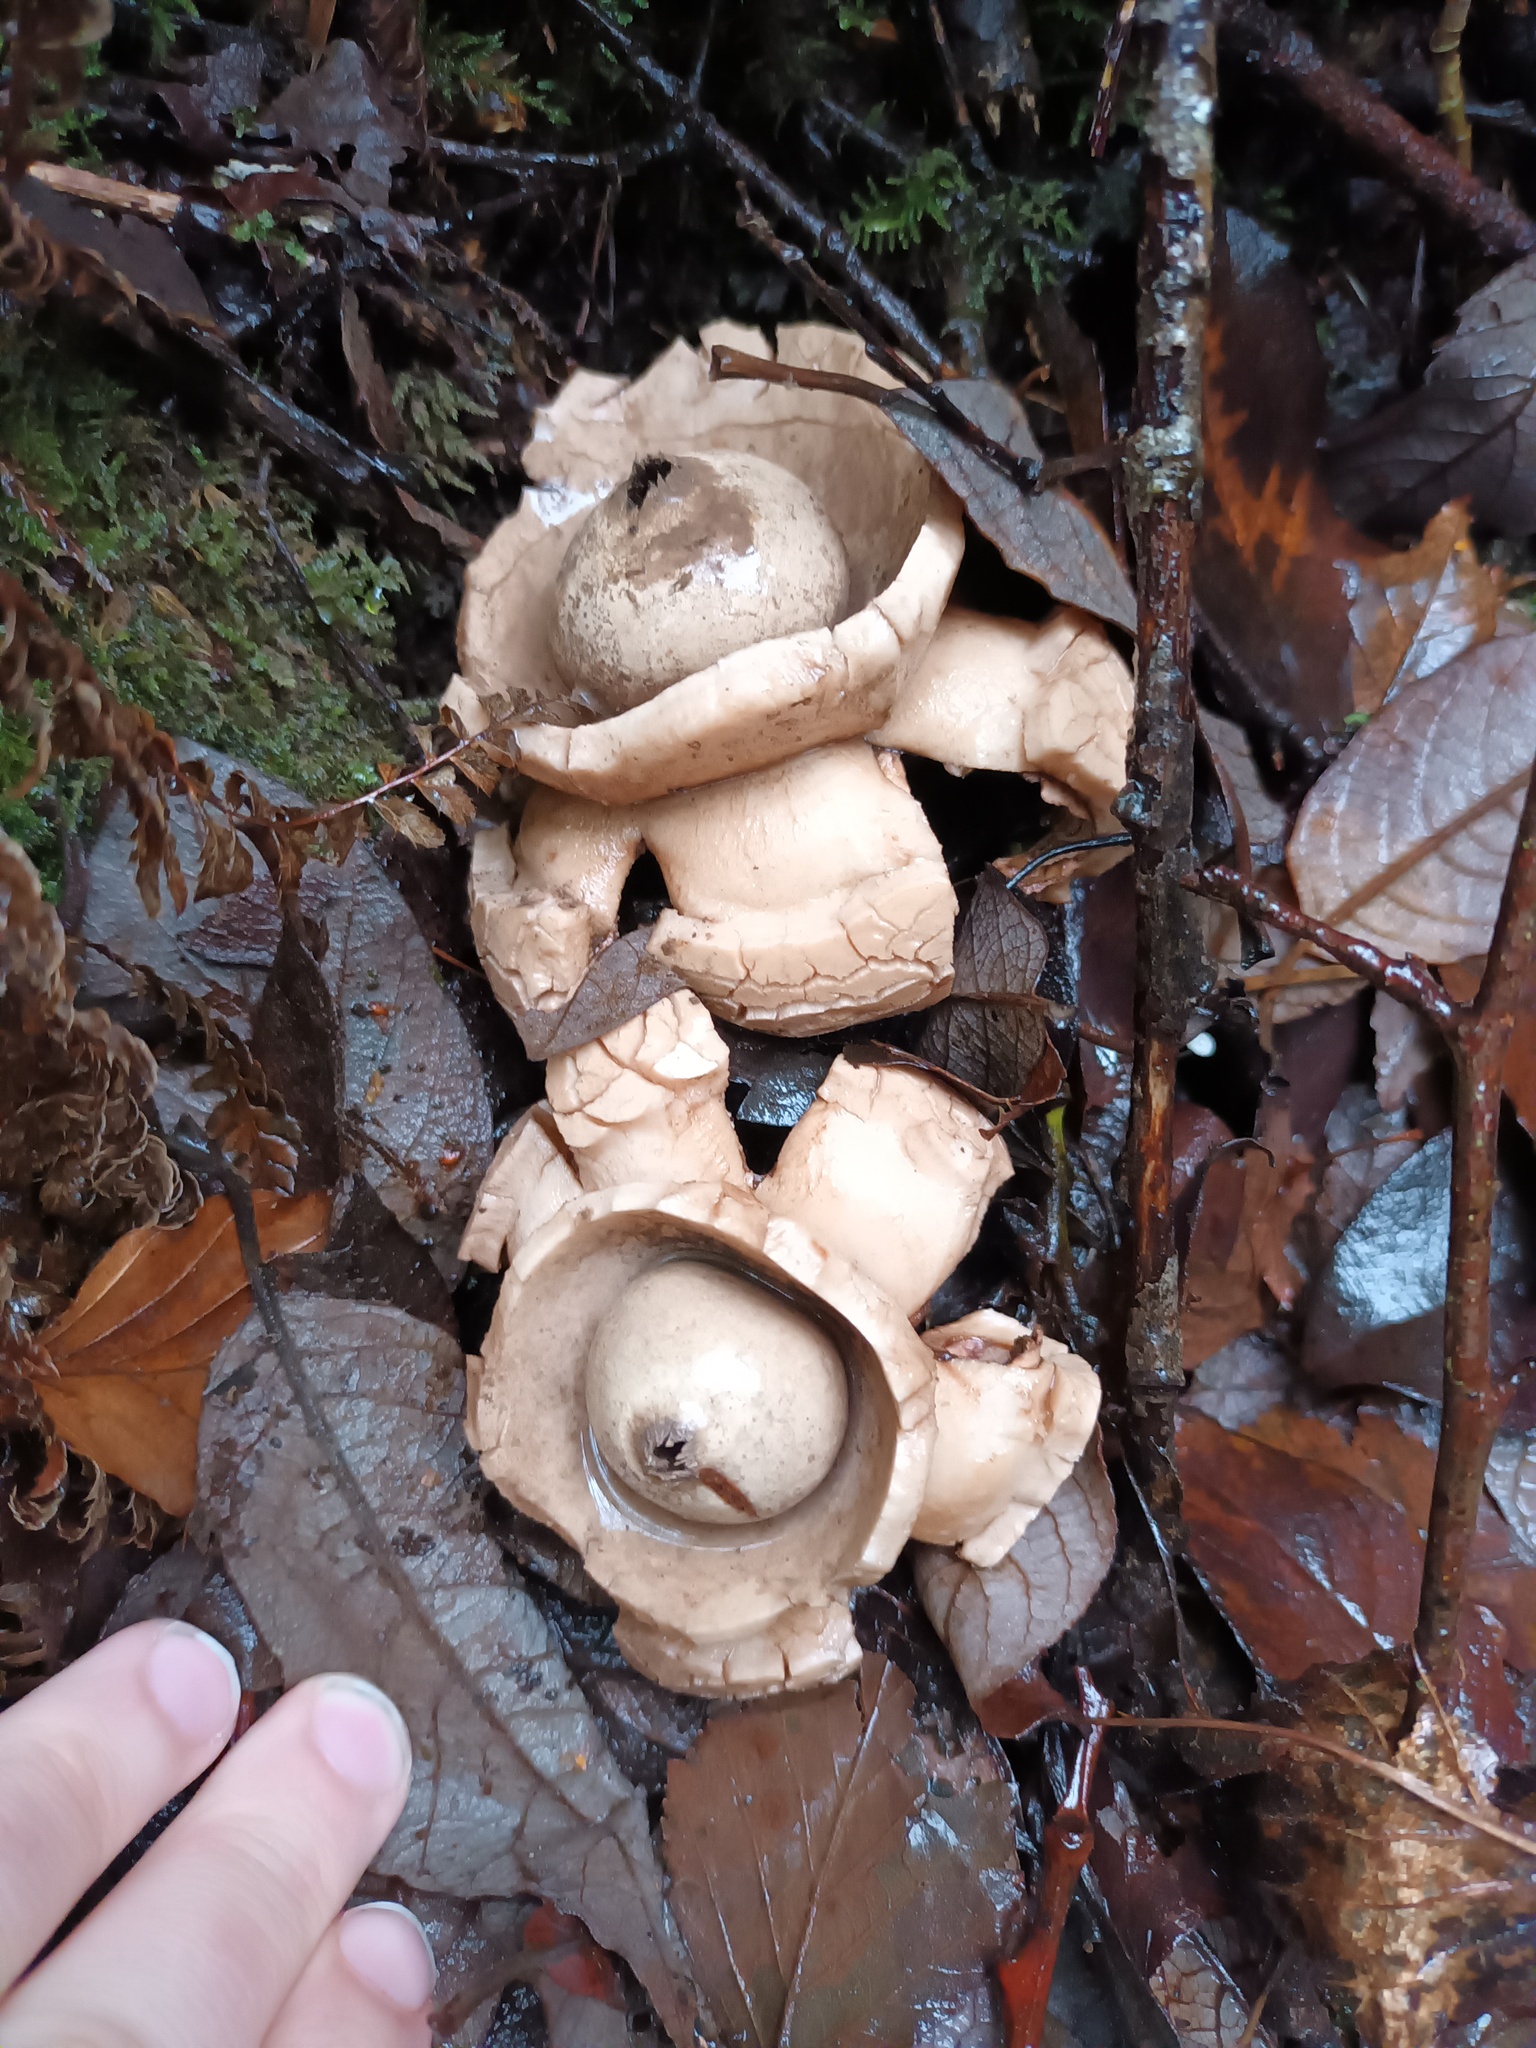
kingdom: Fungi
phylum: Basidiomycota
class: Agaricomycetes
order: Geastrales
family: Geastraceae
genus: Geastrum
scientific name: Geastrum michelianum
